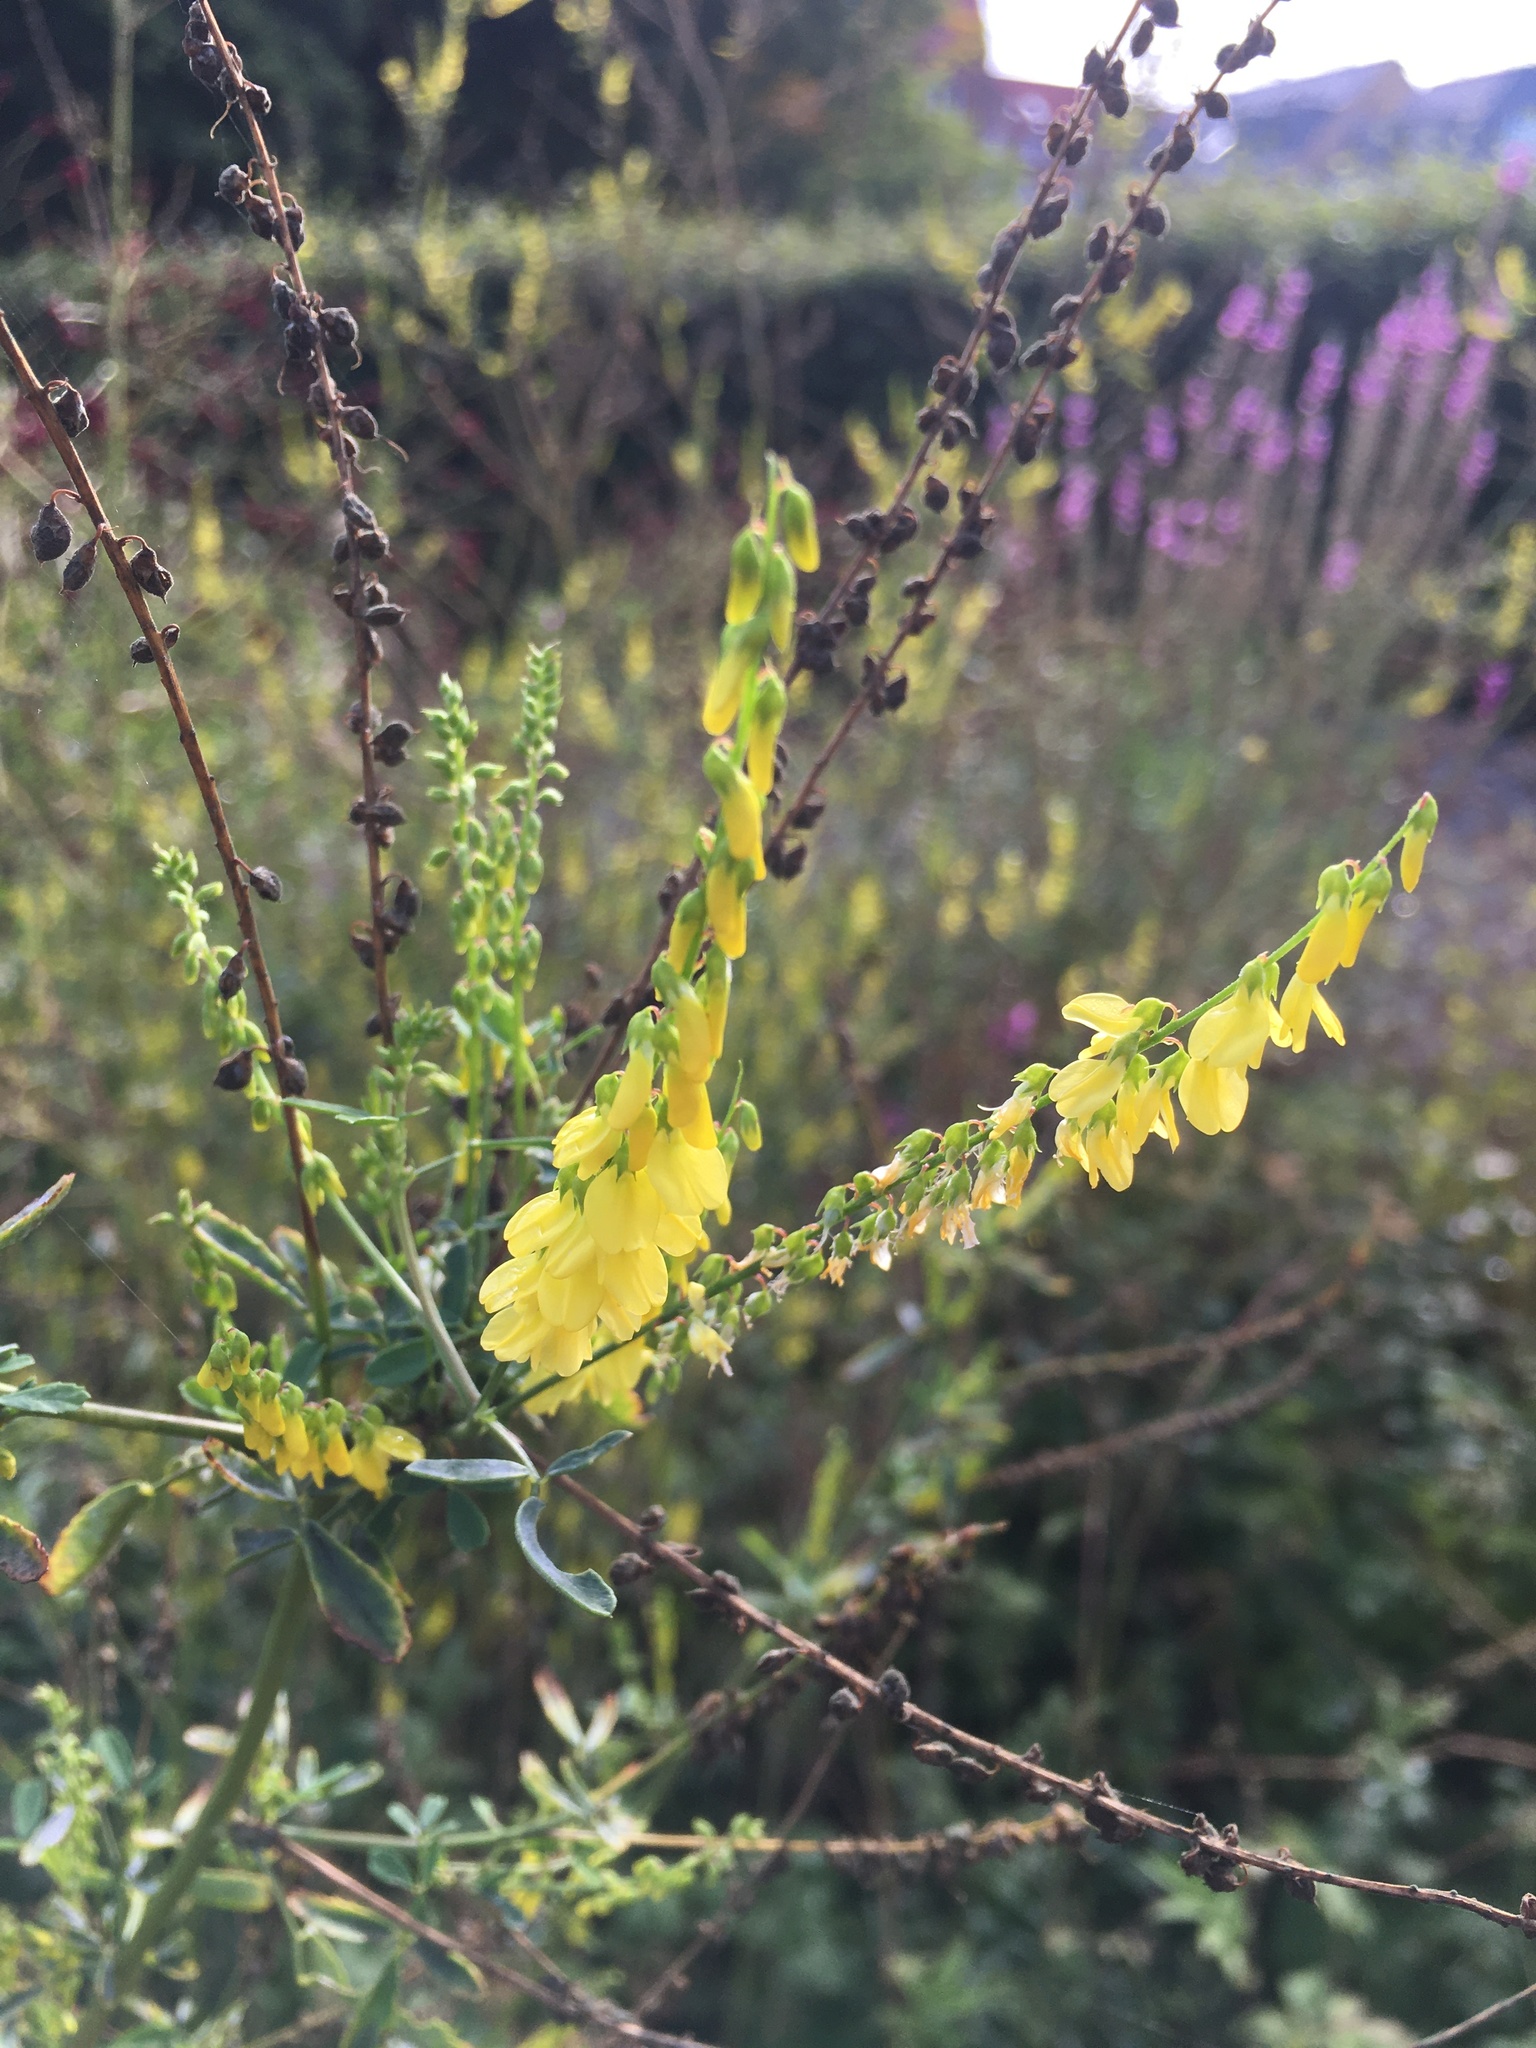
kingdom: Plantae
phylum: Tracheophyta
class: Magnoliopsida
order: Fabales
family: Fabaceae
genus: Melilotus
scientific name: Melilotus officinalis
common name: Sweetclover
